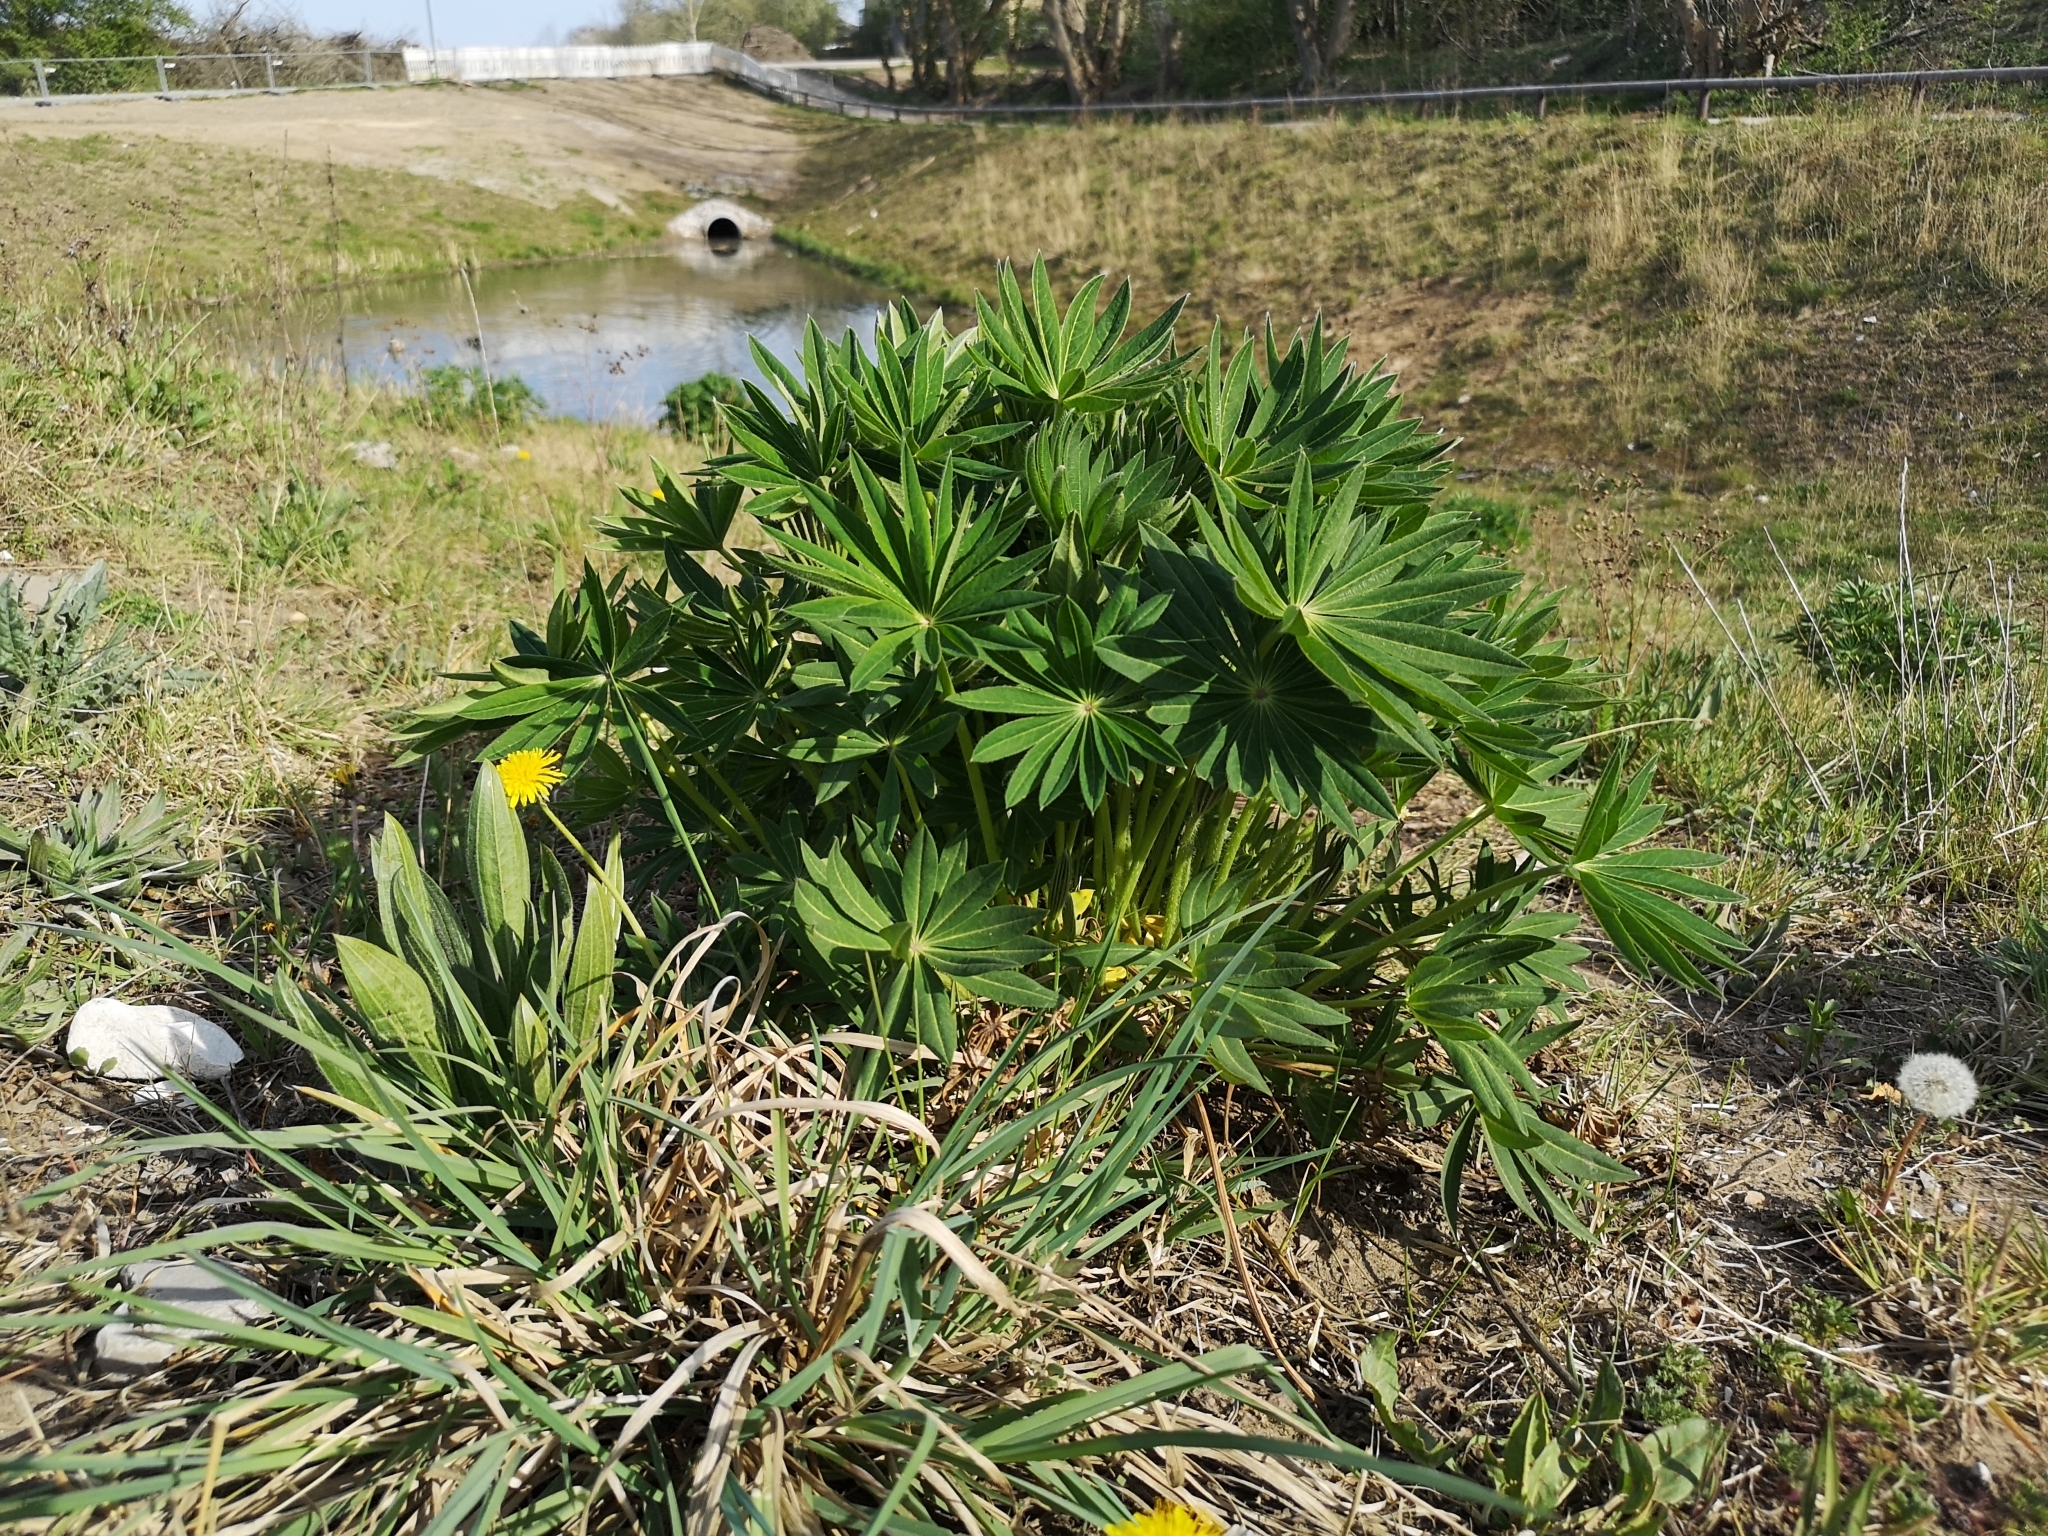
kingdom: Plantae
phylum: Tracheophyta
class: Magnoliopsida
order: Fabales
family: Fabaceae
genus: Lupinus
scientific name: Lupinus polyphyllus
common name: Garden lupin
